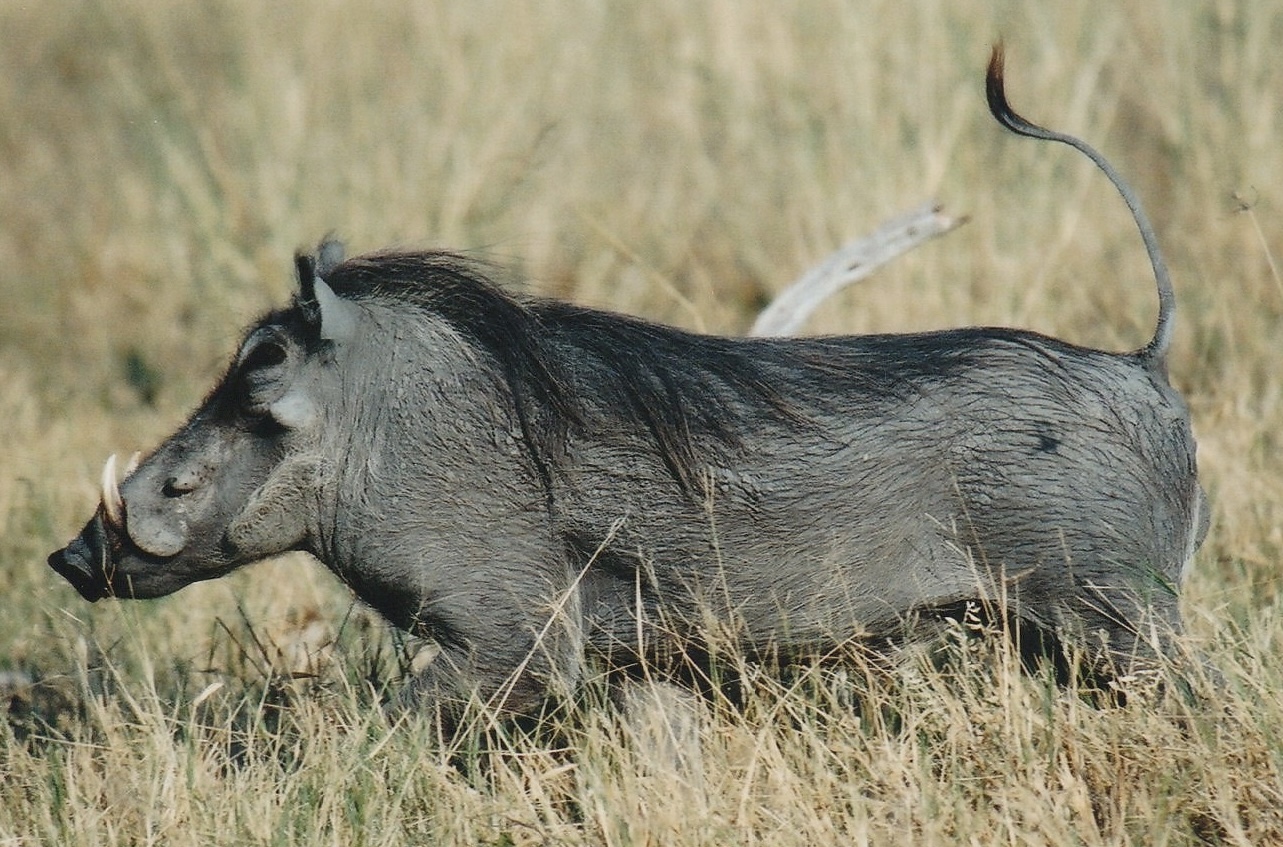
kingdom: Animalia
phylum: Chordata
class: Mammalia
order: Artiodactyla
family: Suidae
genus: Phacochoerus
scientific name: Phacochoerus africanus
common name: Common warthog
